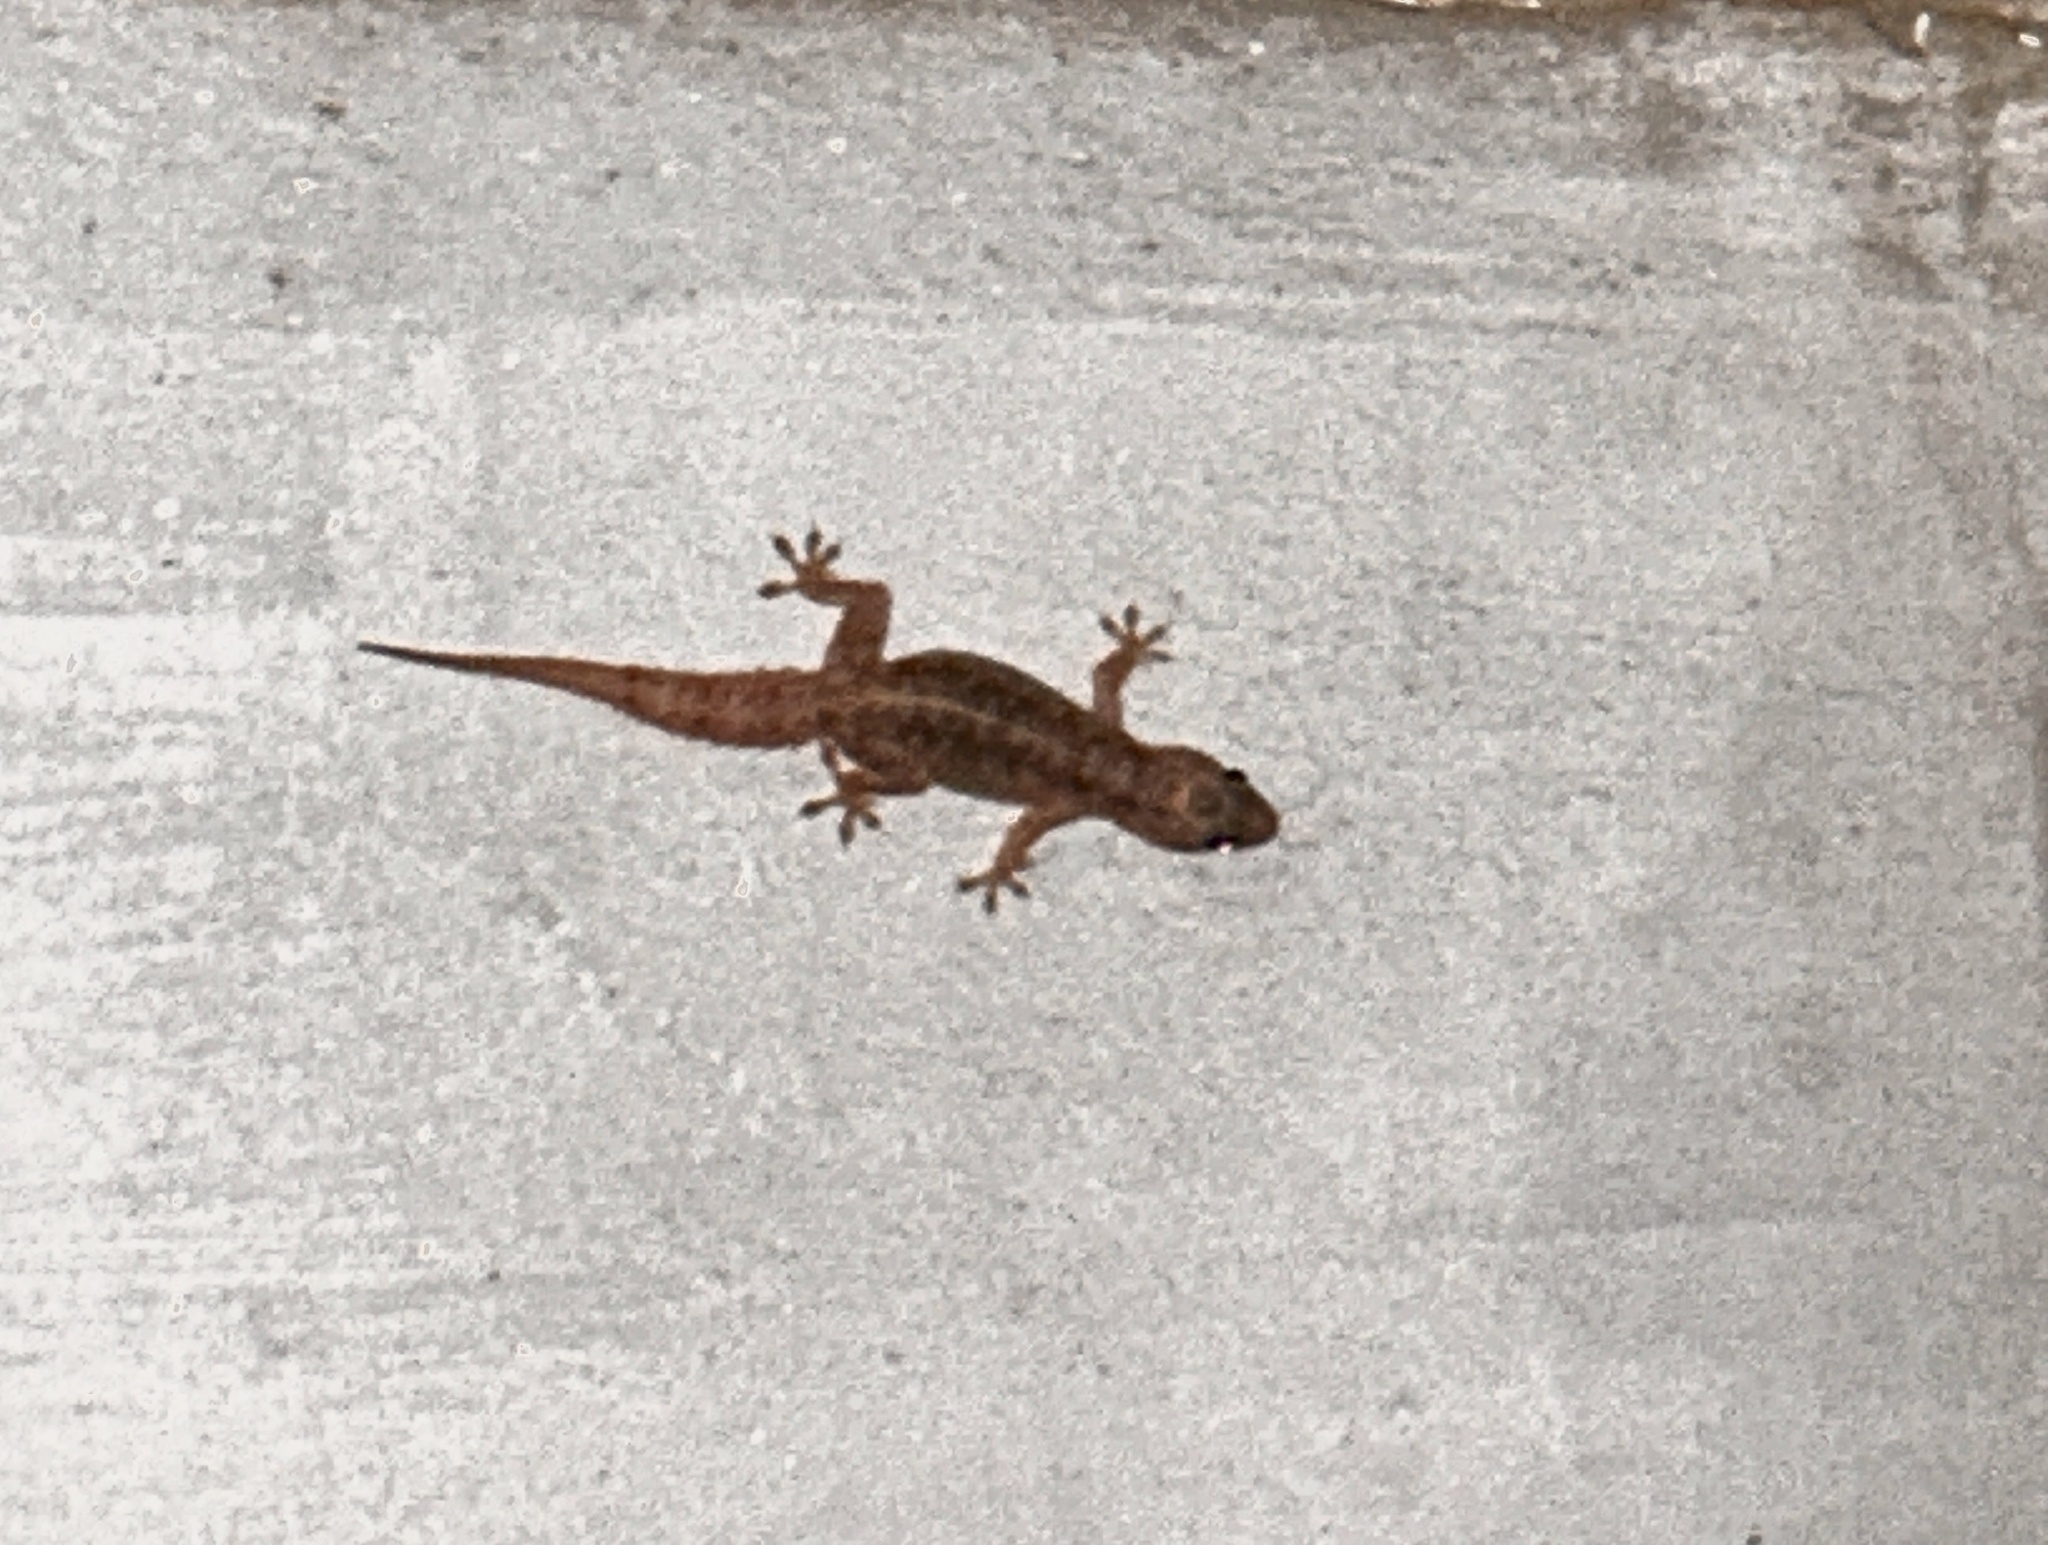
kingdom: Animalia
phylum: Chordata
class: Squamata
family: Gekkonidae
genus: Hemidactylus
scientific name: Hemidactylus platyurus
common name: Flat-tailed house gecko
